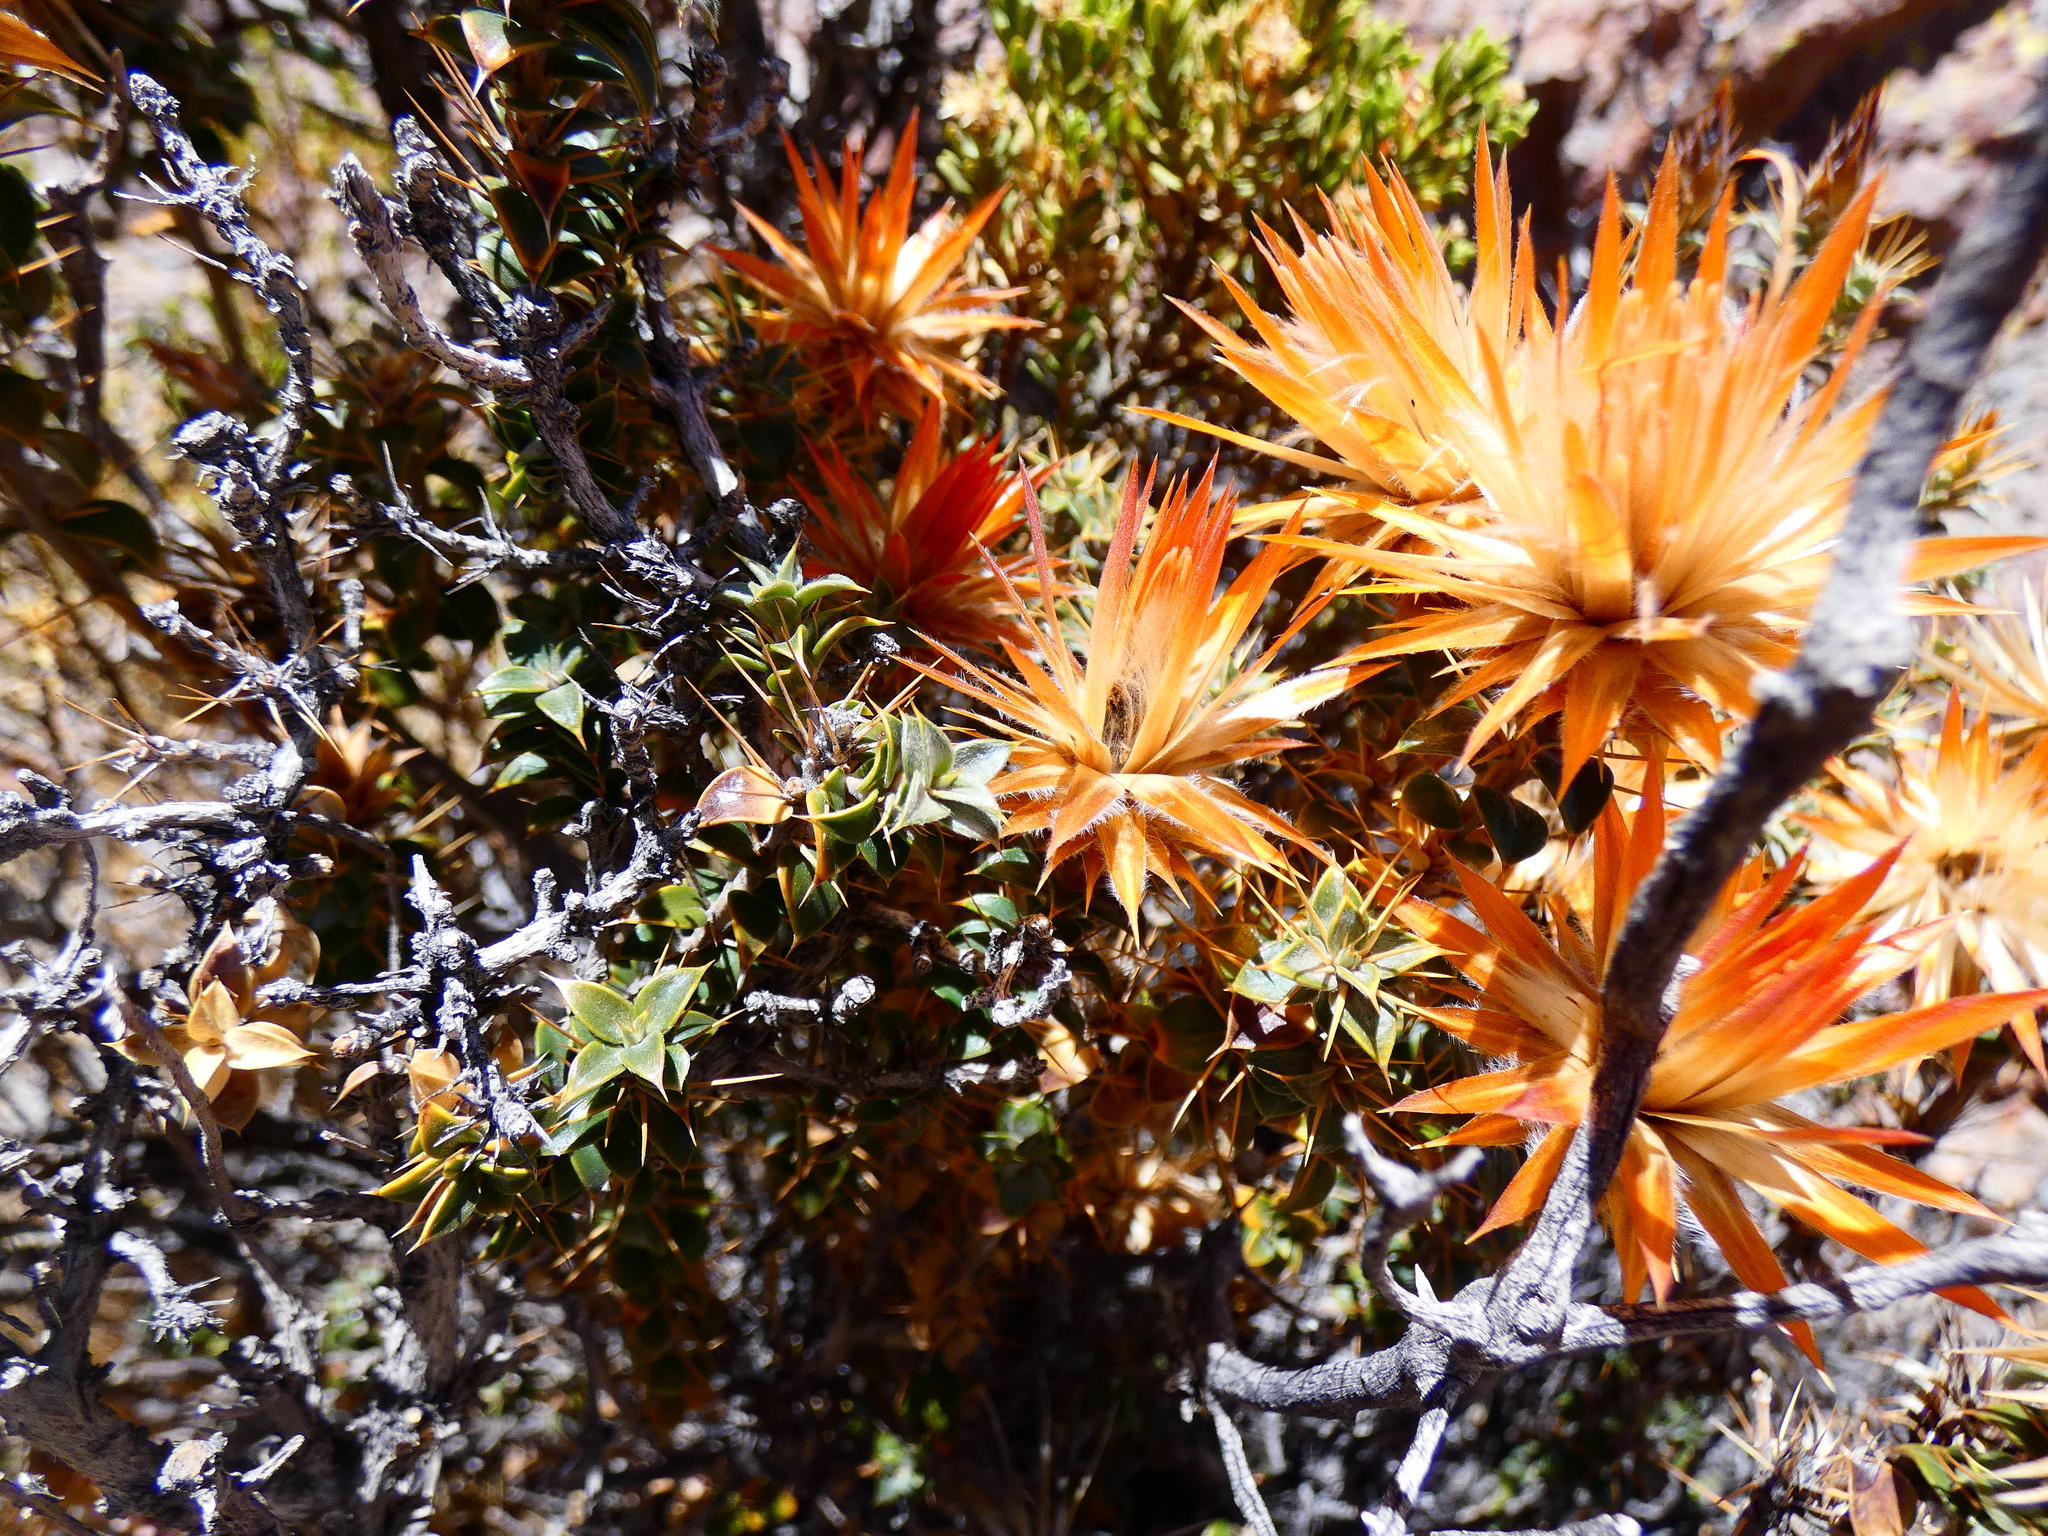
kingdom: Plantae
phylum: Tracheophyta
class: Magnoliopsida
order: Asterales
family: Asteraceae
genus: Chuquiraga
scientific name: Chuquiraga spinosa
